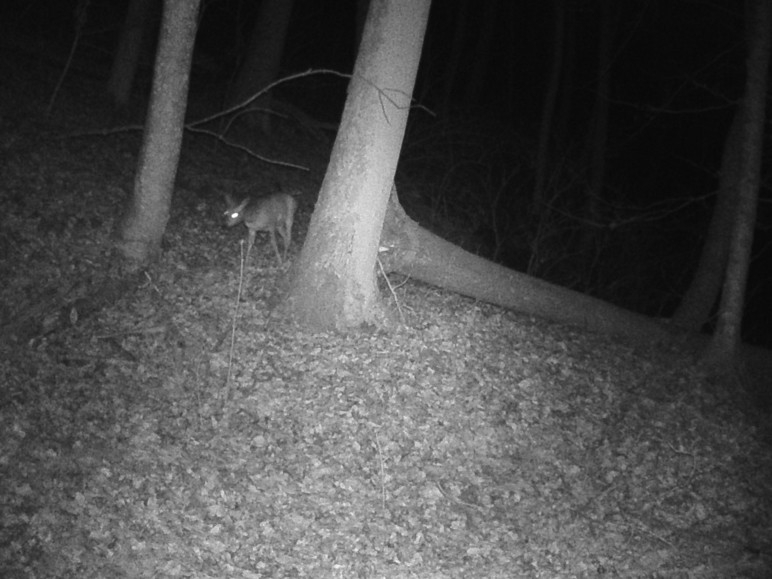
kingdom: Animalia
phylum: Chordata
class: Mammalia
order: Artiodactyla
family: Cervidae
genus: Capreolus
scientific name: Capreolus capreolus
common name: Western roe deer
